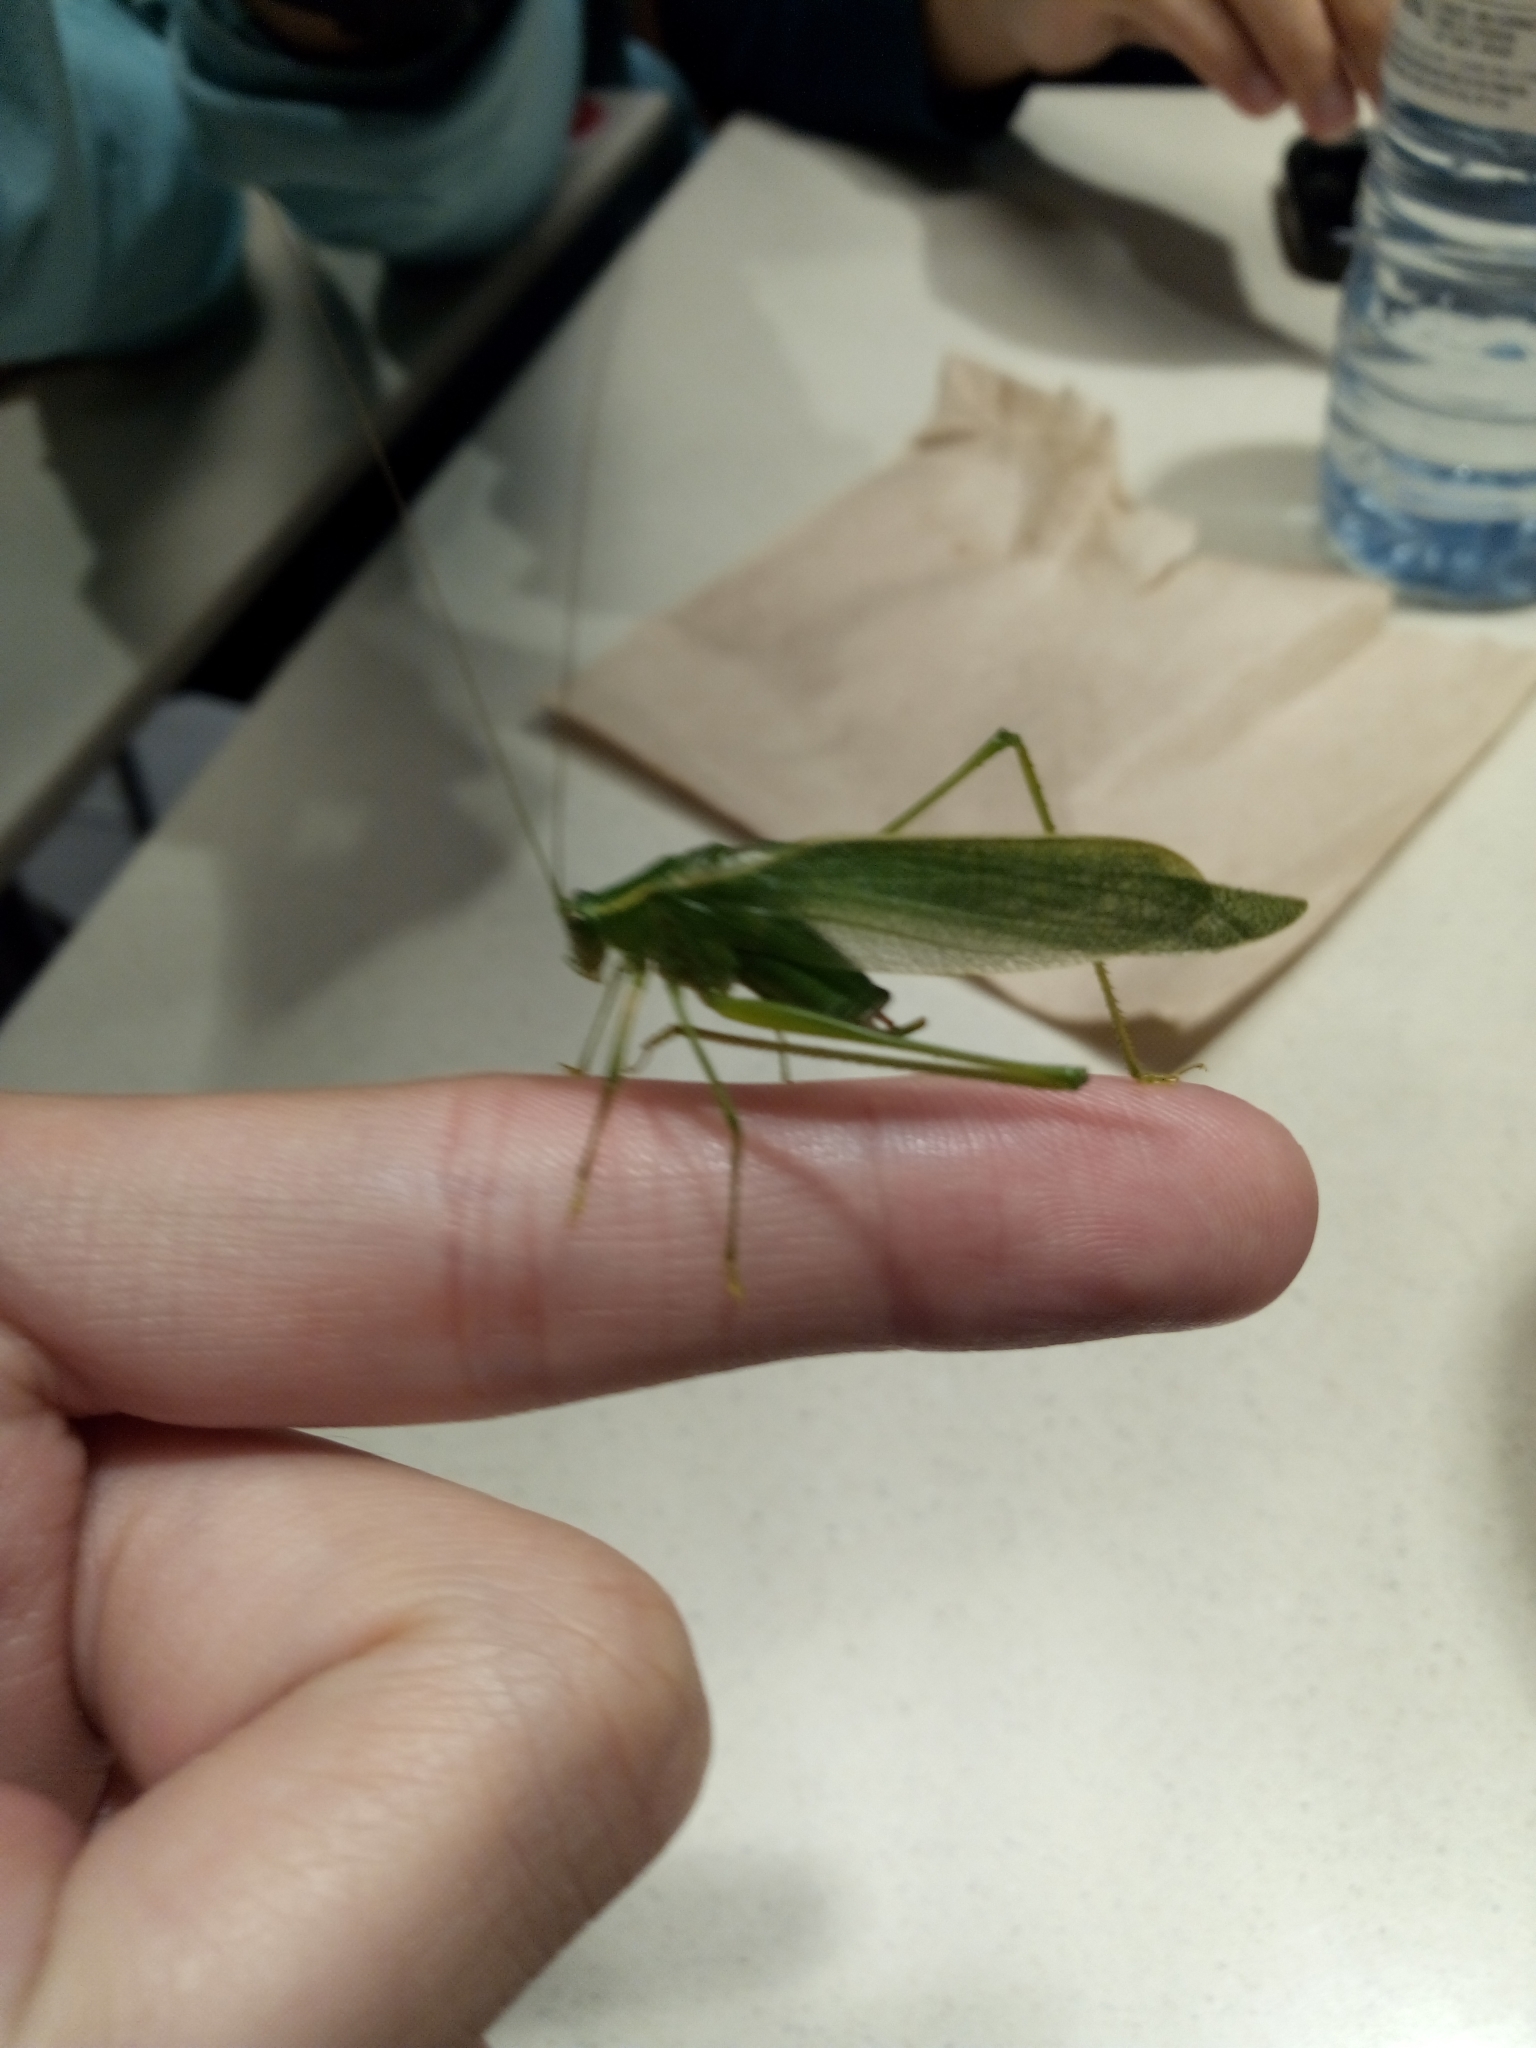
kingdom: Animalia
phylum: Arthropoda
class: Insecta
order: Orthoptera
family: Tettigoniidae
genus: Scudderia
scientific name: Scudderia septentrionalis
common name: Northern bush-katydid
